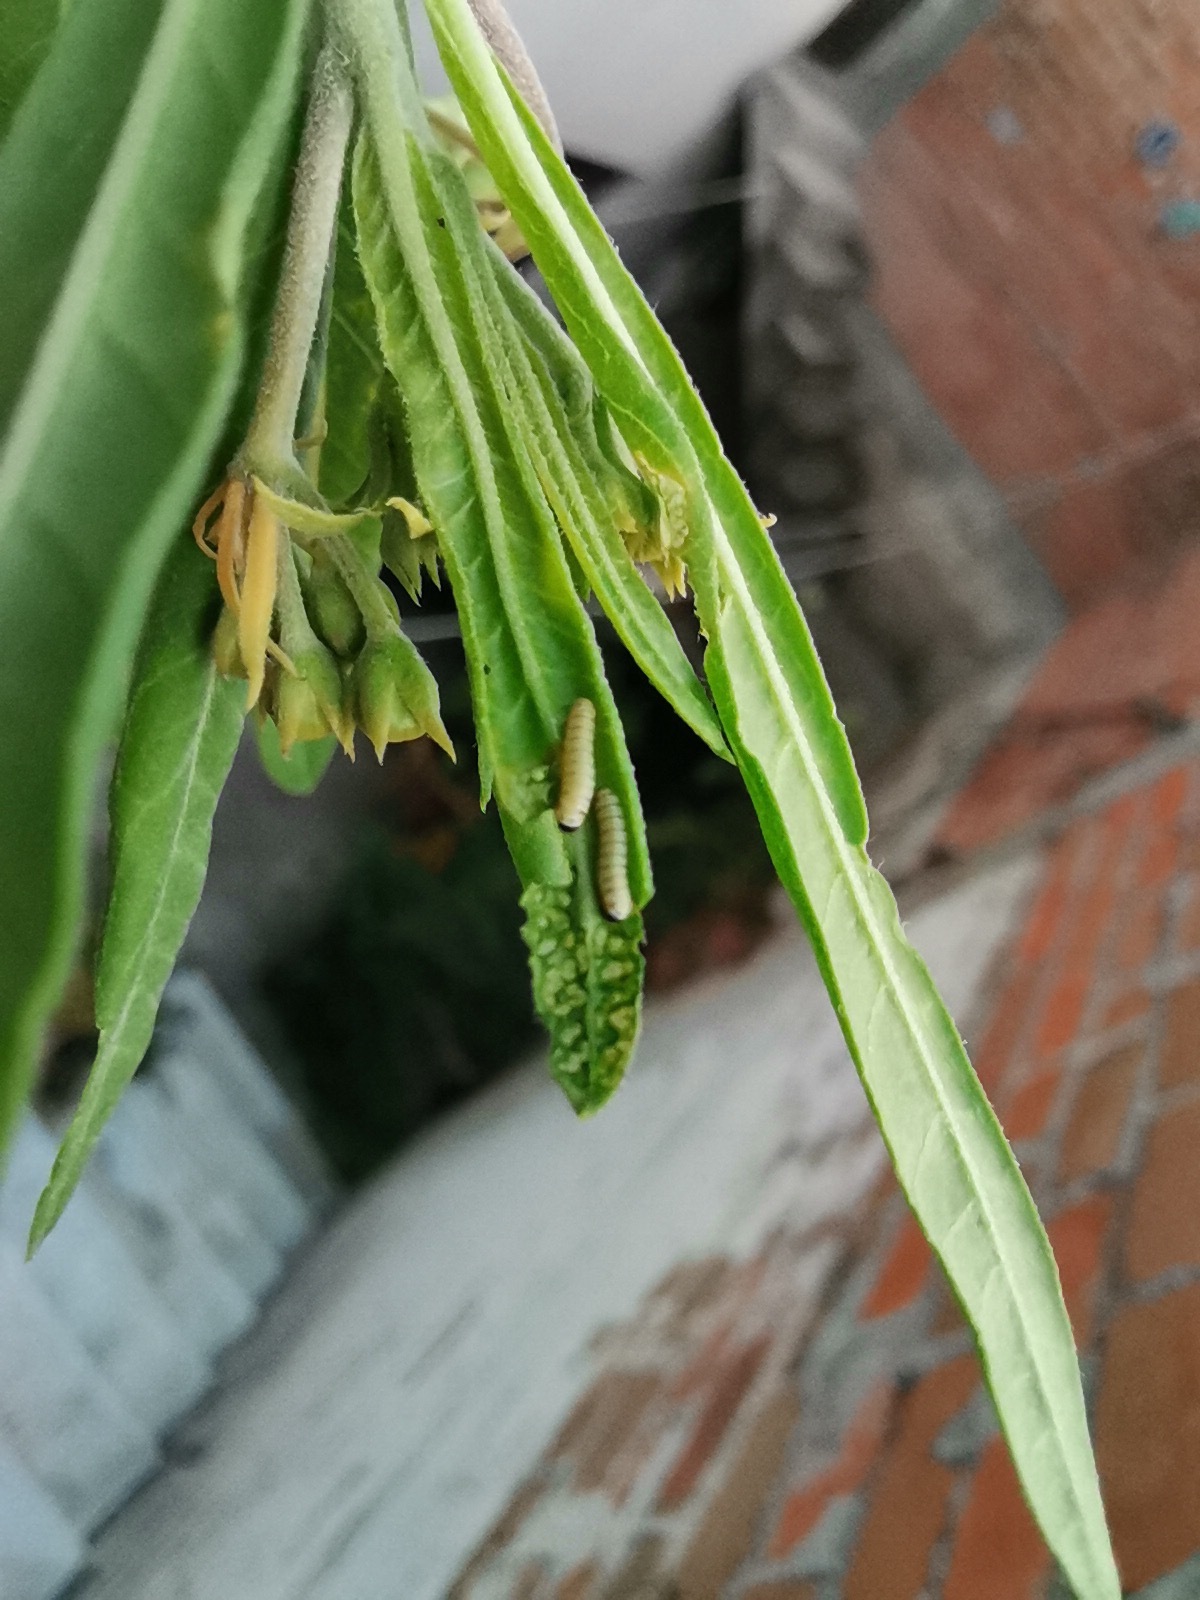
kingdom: Animalia
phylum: Arthropoda
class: Insecta
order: Lepidoptera
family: Nymphalidae
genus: Danaus
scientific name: Danaus plexippus
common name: Monarch
